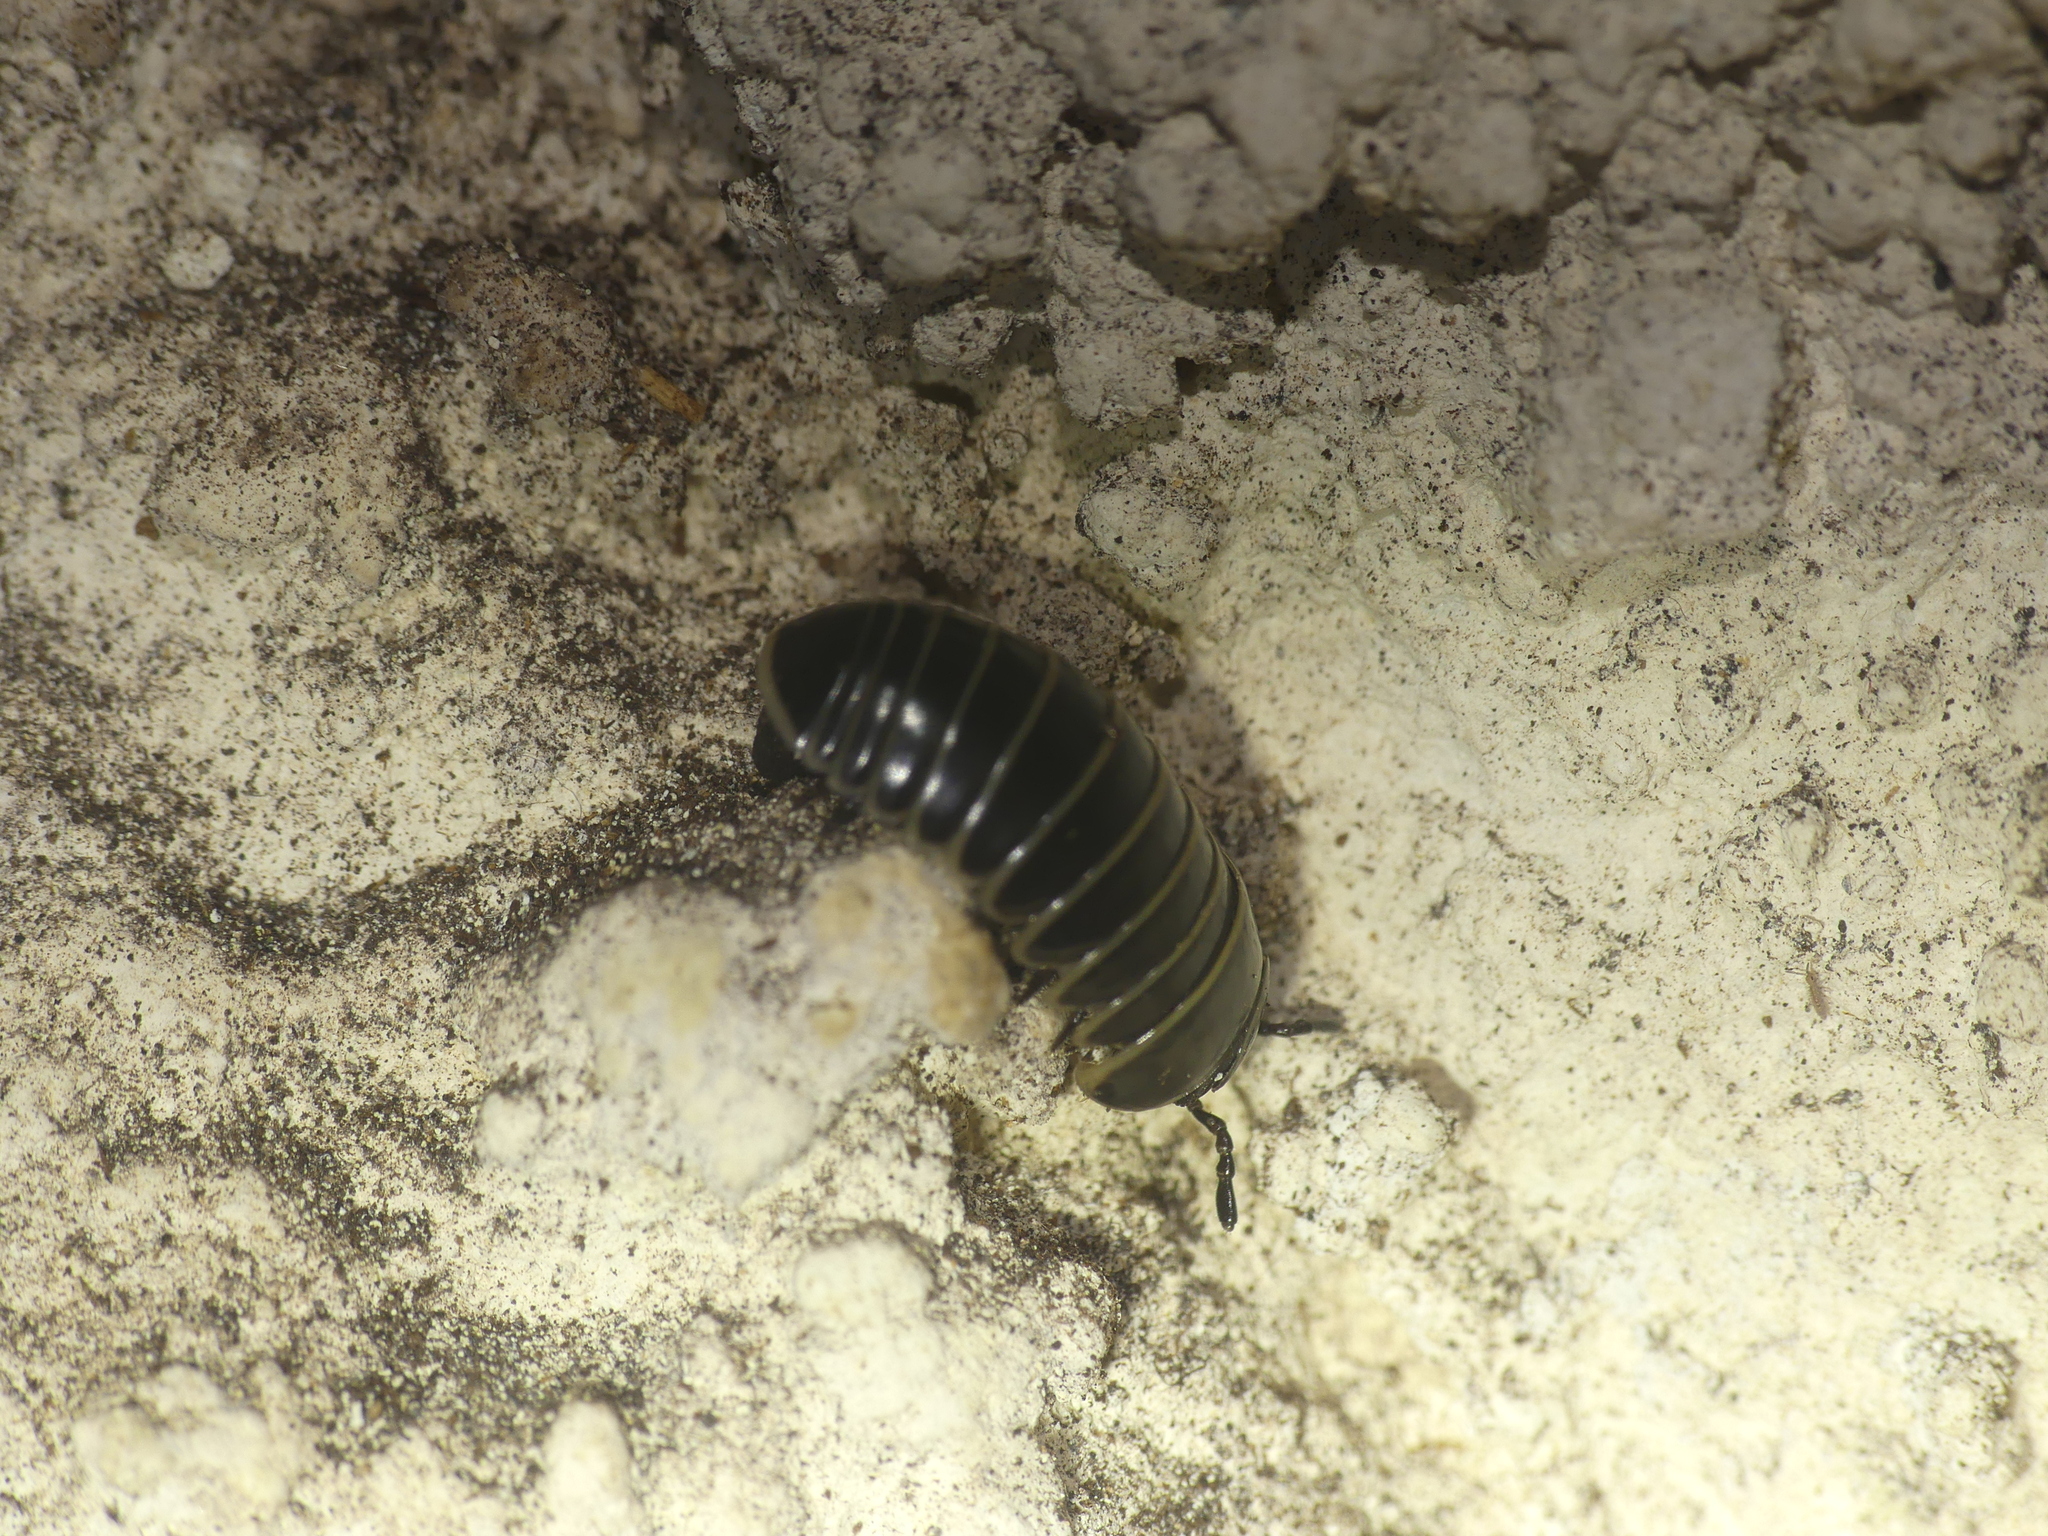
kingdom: Animalia
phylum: Arthropoda
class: Diplopoda
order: Glomerida
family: Glomeridae
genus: Glomeris
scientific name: Glomeris marginata
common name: Bordered pill millipede
